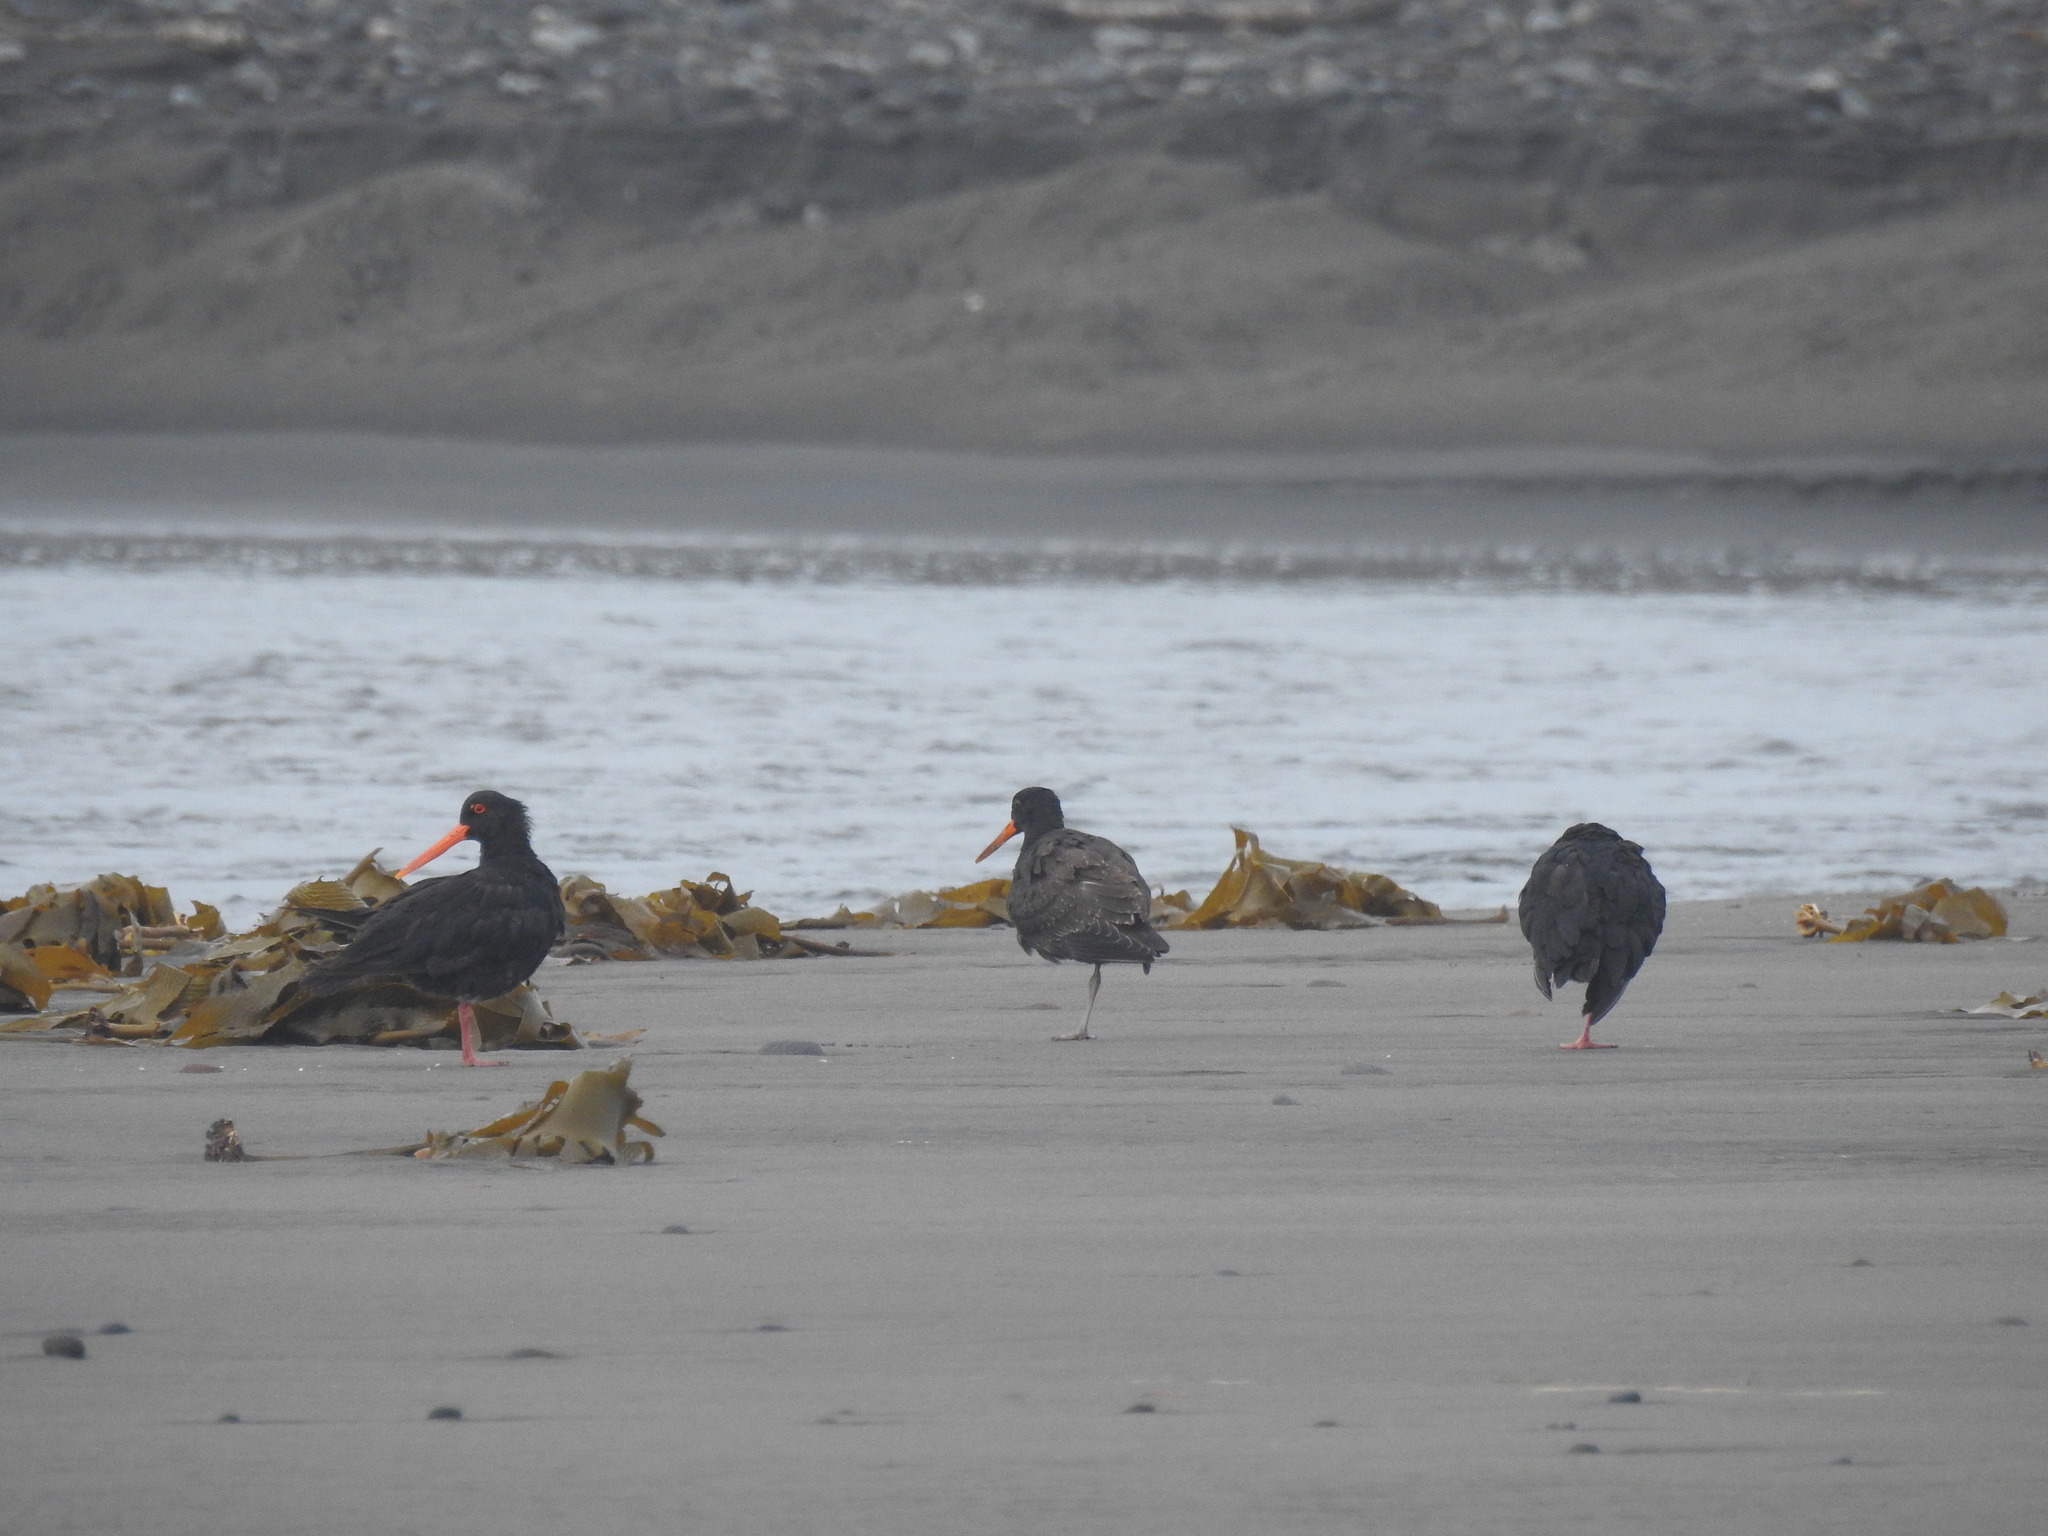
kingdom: Animalia
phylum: Chordata
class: Aves
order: Charadriiformes
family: Haematopodidae
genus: Haematopus
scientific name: Haematopus unicolor
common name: Variable oystercatcher
